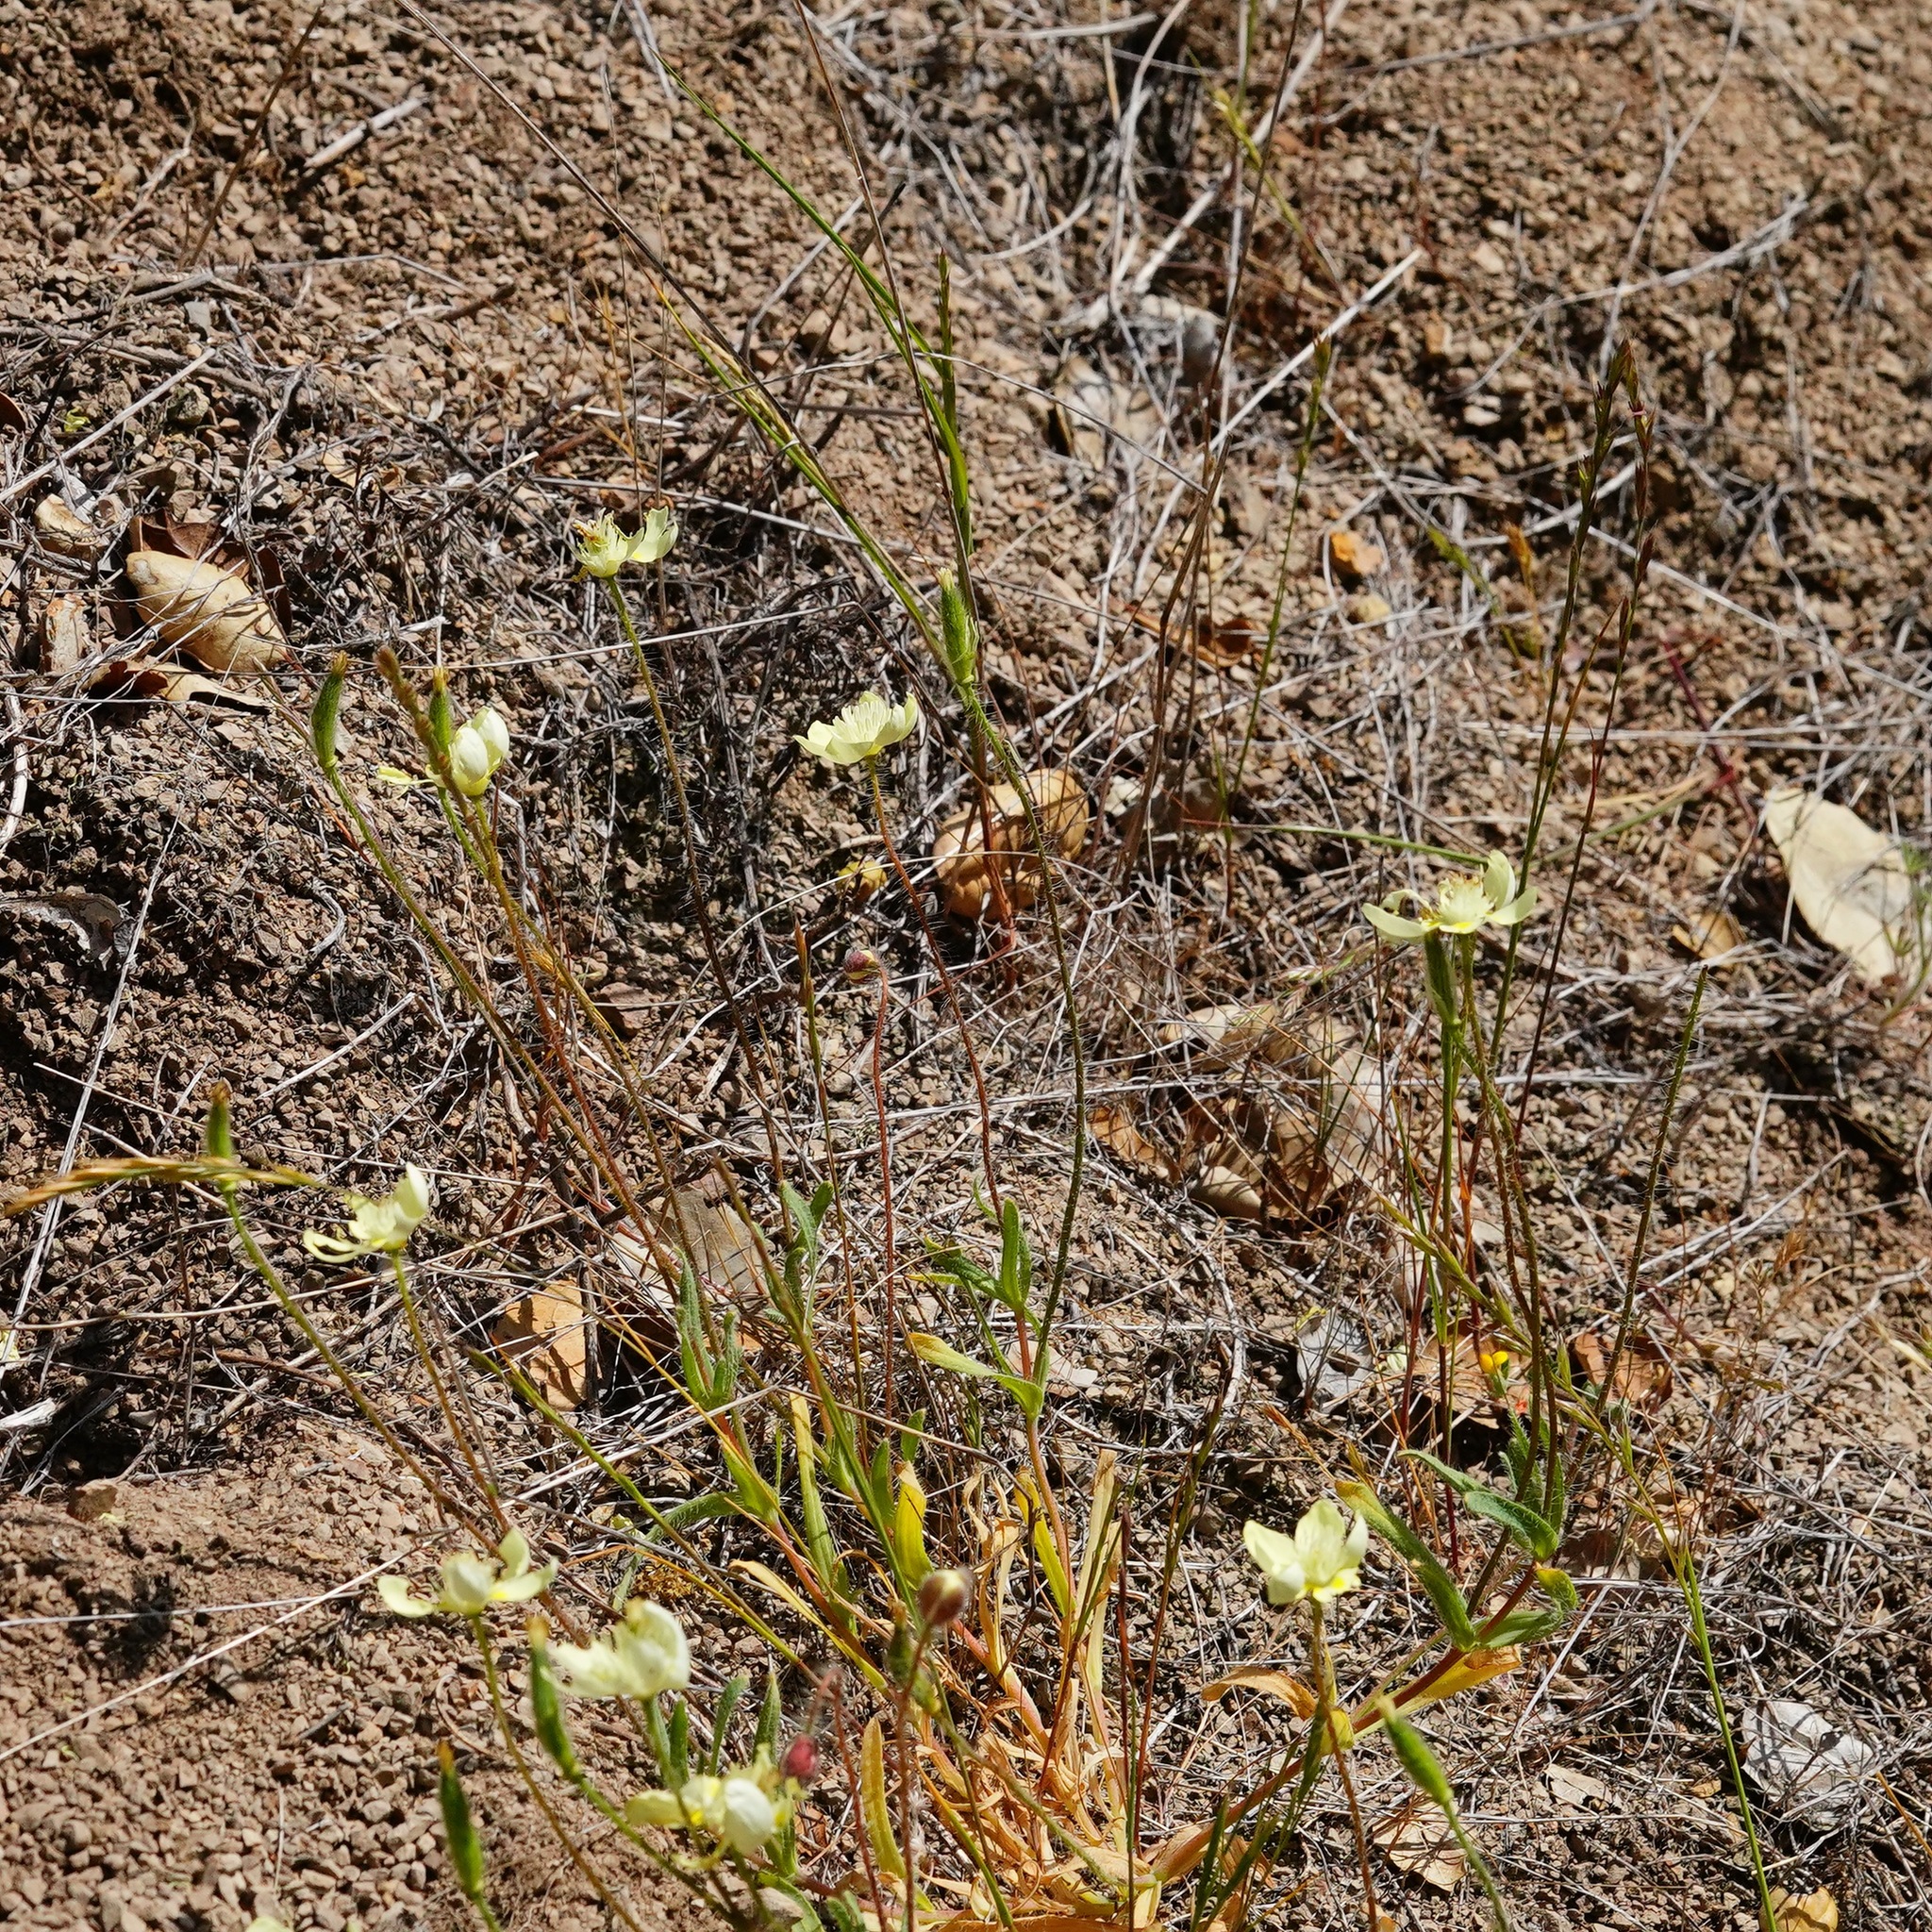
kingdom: Plantae
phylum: Tracheophyta
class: Magnoliopsida
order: Ranunculales
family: Papaveraceae
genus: Platystemon
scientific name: Platystemon californicus
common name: Cream-cups
